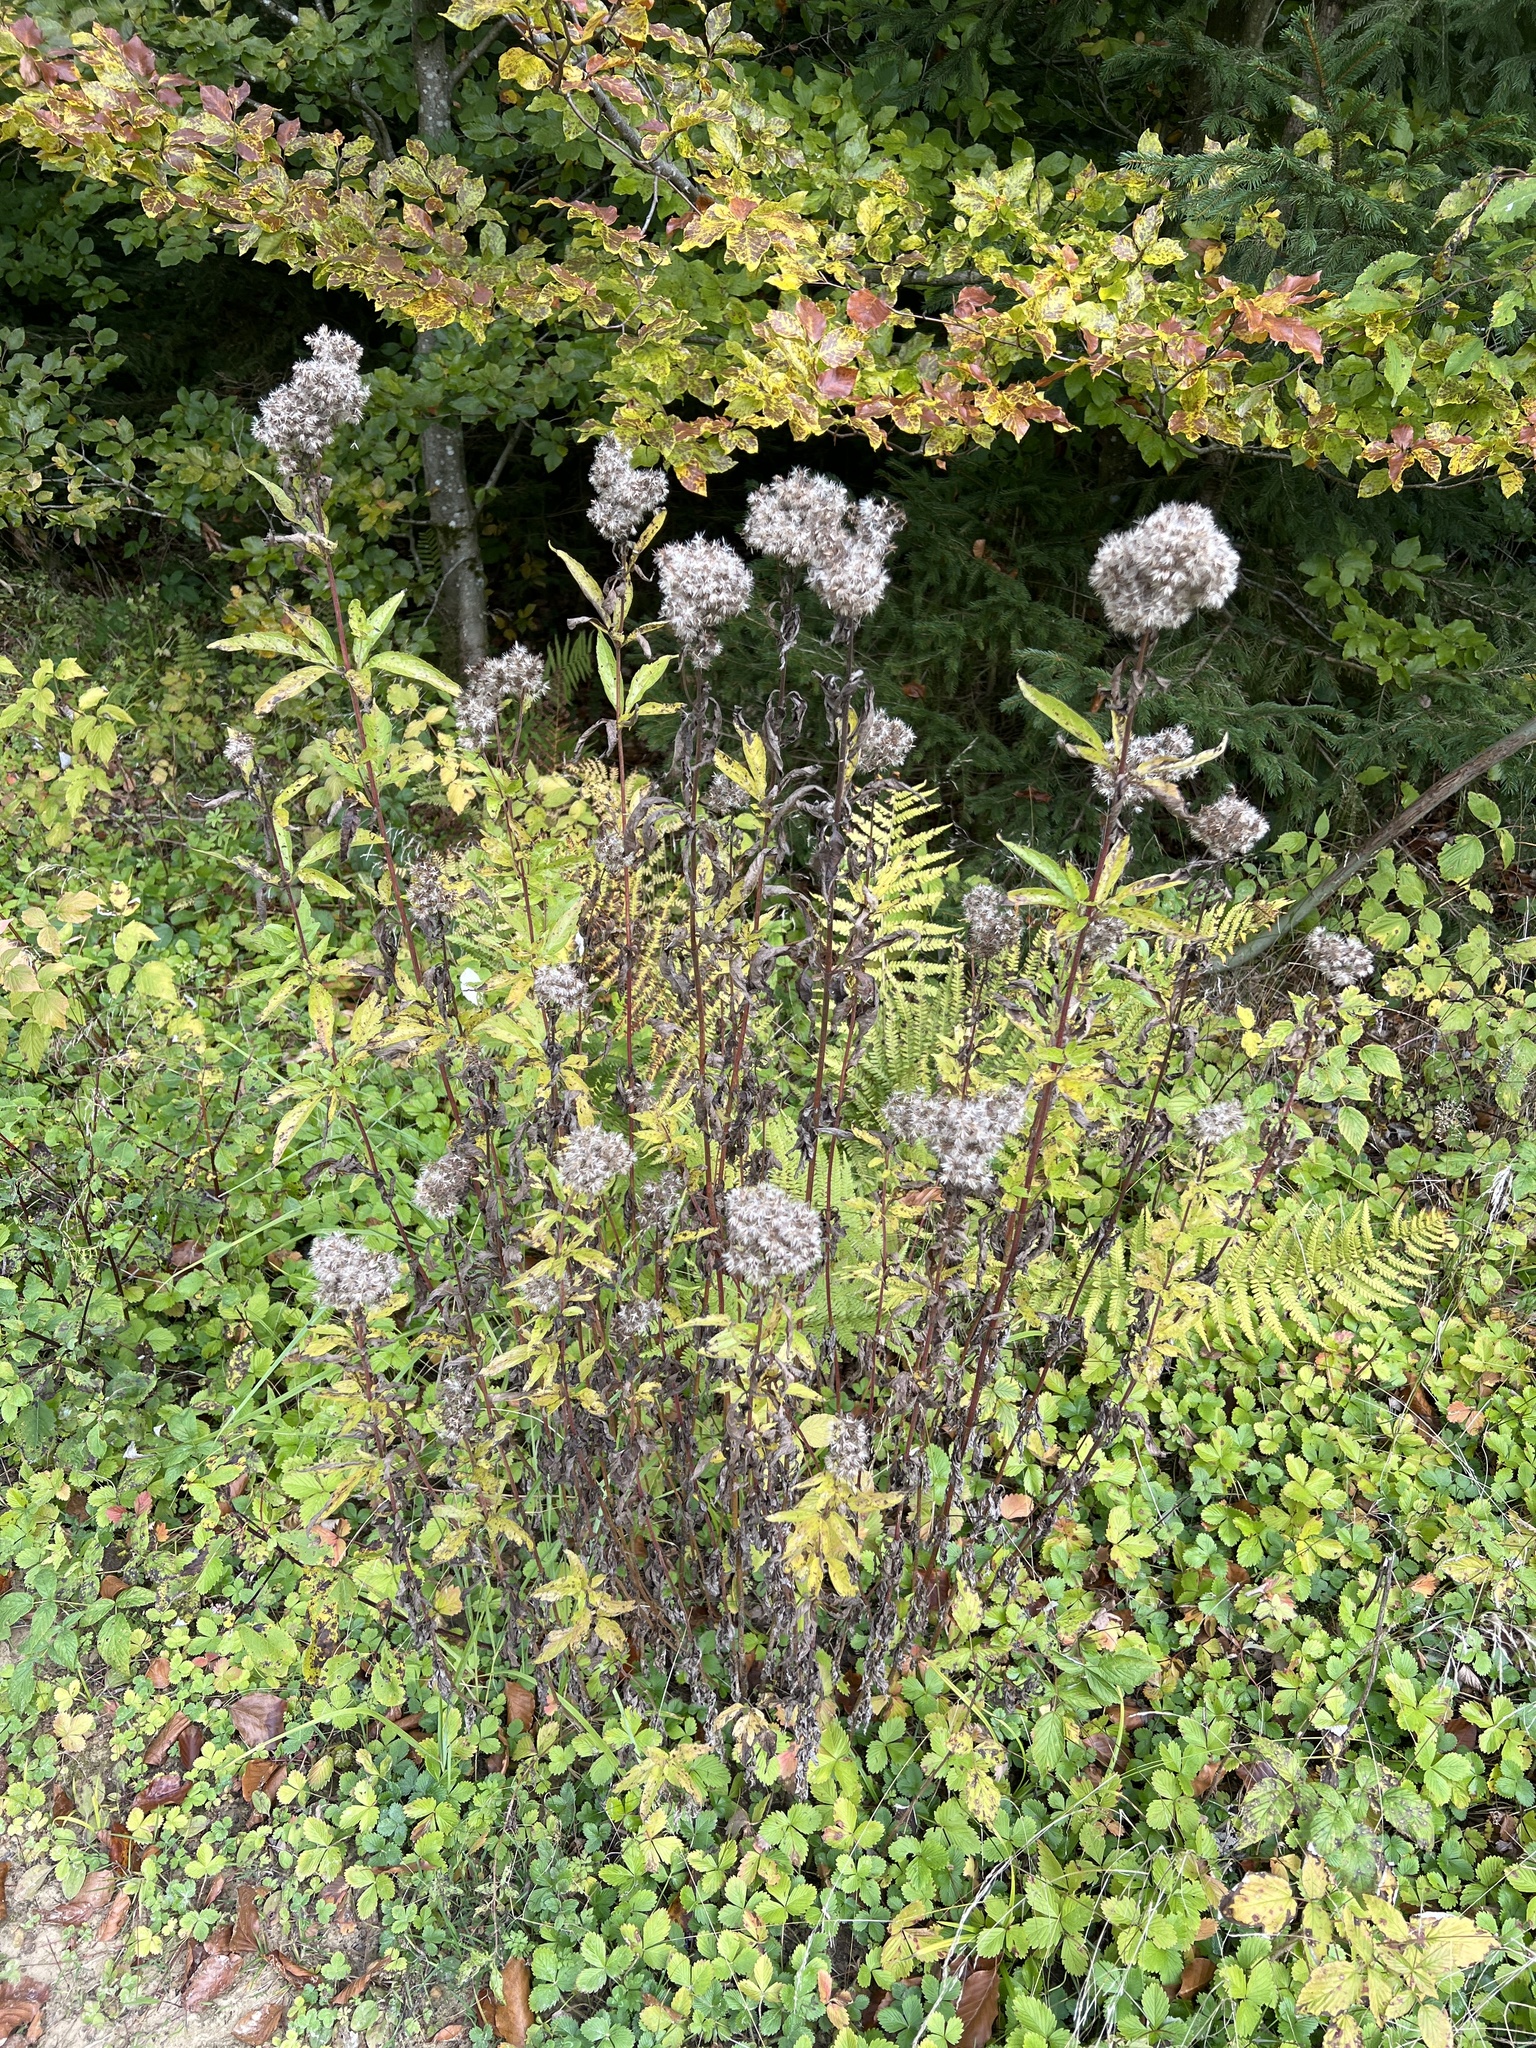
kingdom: Plantae
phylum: Tracheophyta
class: Magnoliopsida
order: Asterales
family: Asteraceae
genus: Eupatorium
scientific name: Eupatorium cannabinum
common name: Hemp-agrimony
